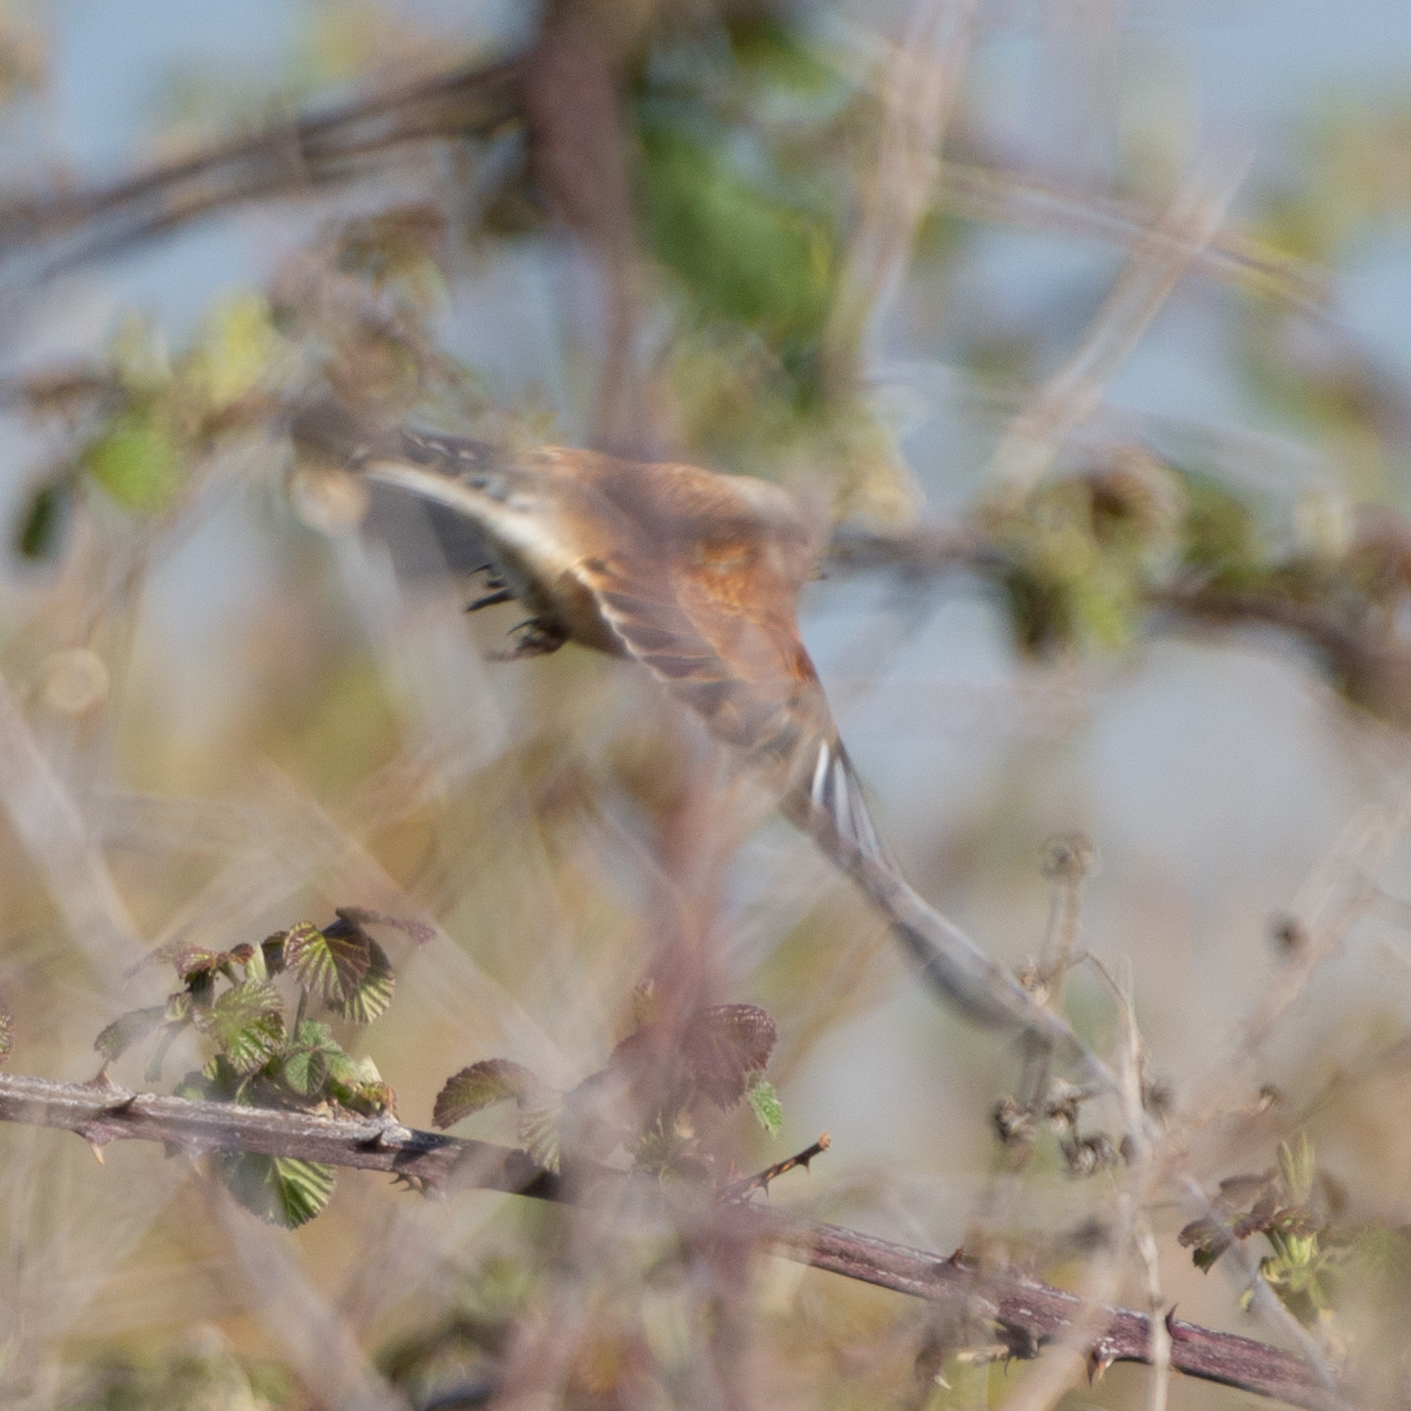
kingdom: Animalia
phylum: Chordata
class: Aves
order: Passeriformes
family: Fringillidae
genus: Linaria
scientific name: Linaria cannabina
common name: Common linnet
